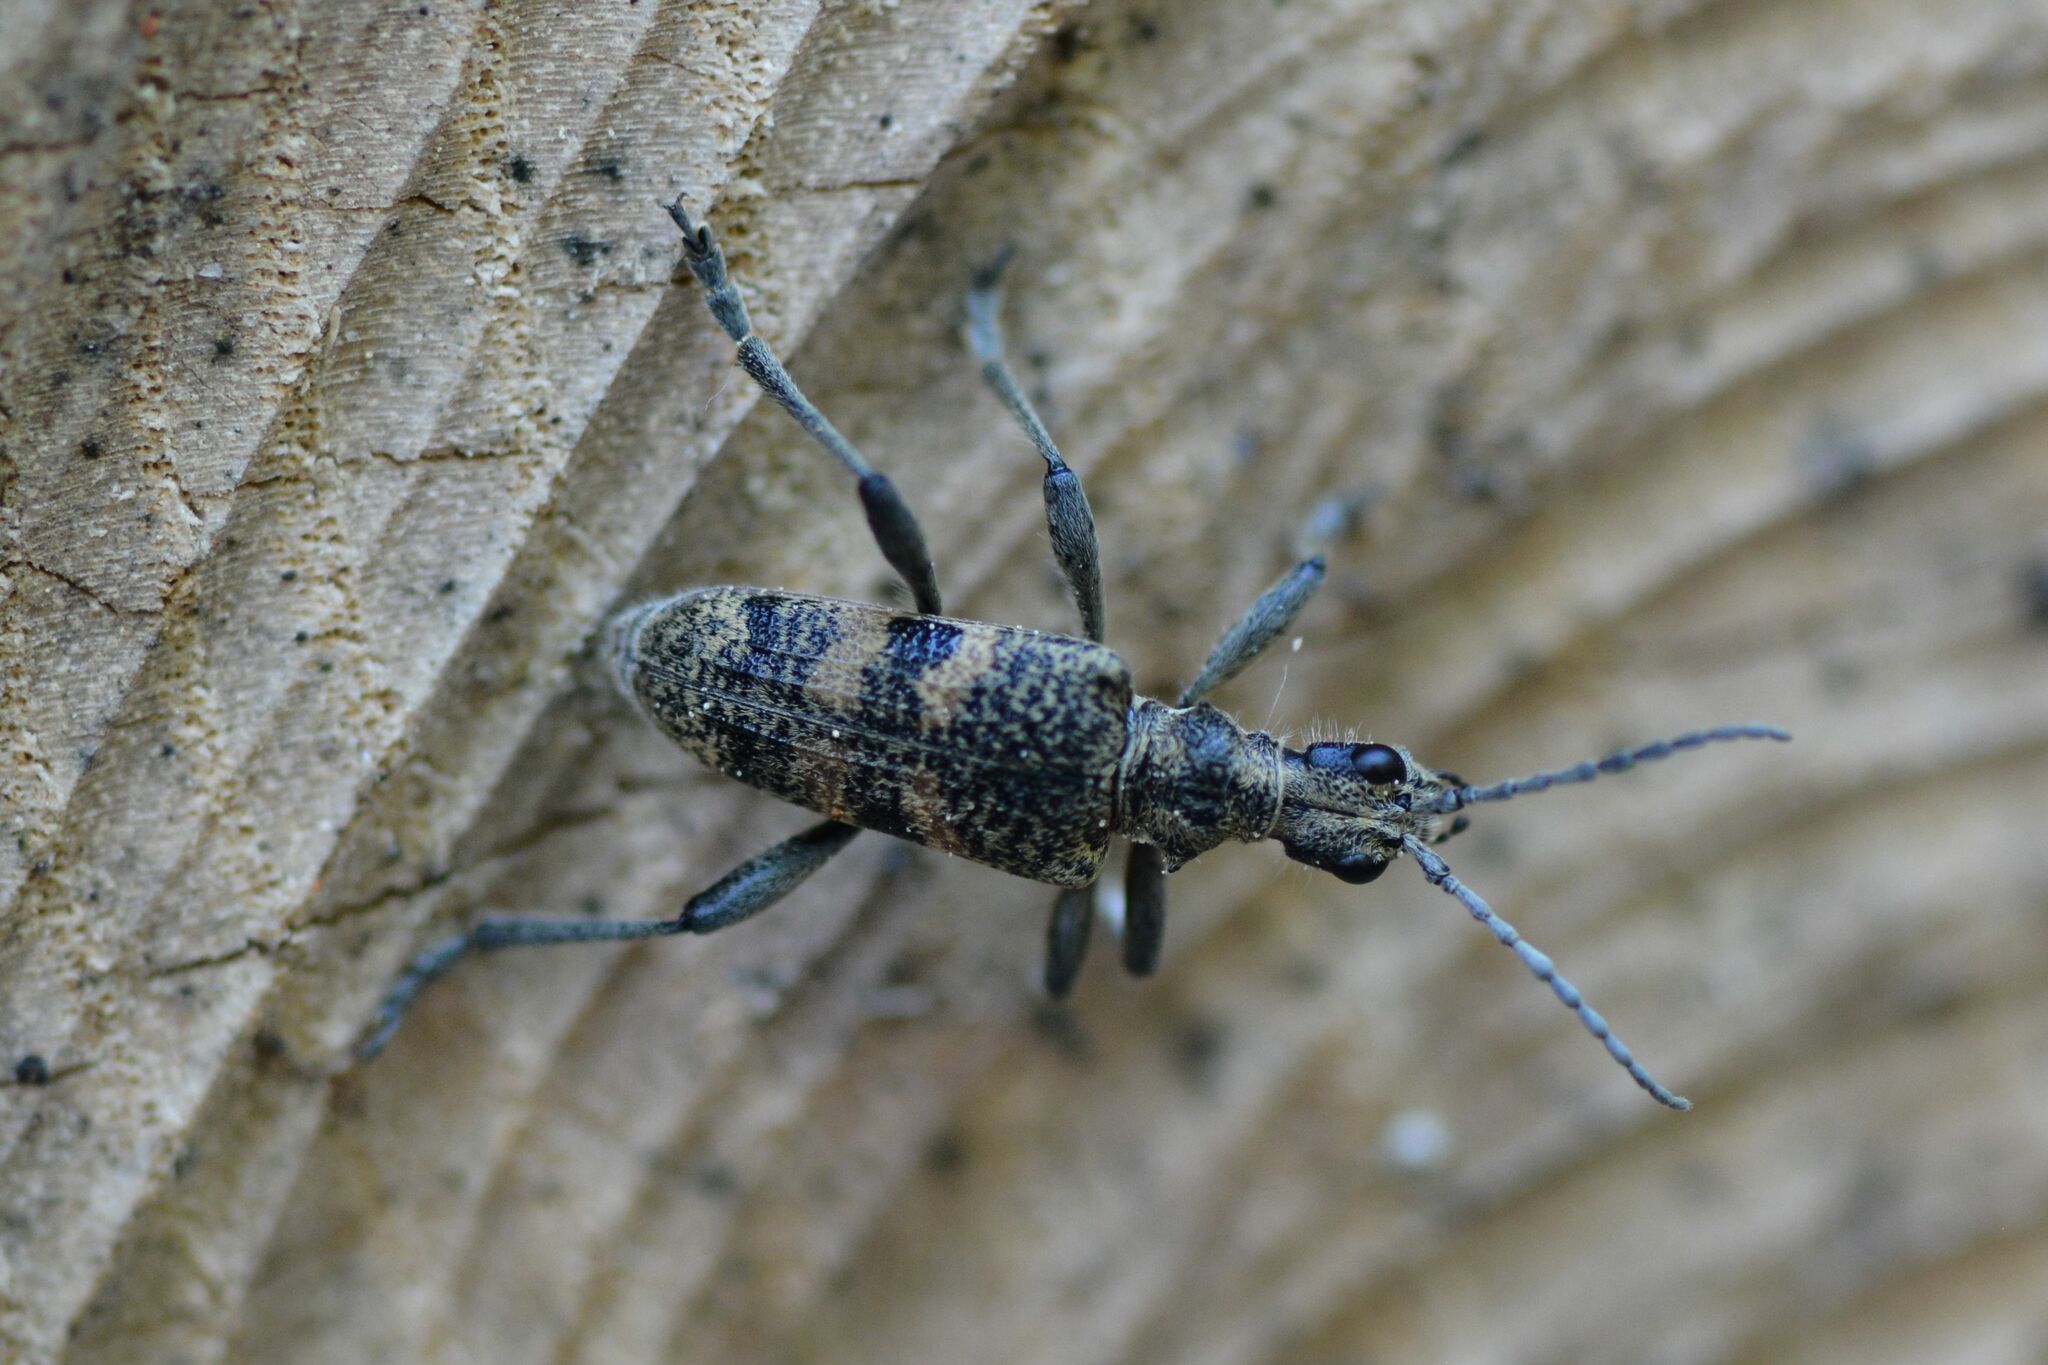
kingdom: Animalia
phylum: Arthropoda
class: Insecta
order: Coleoptera
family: Cerambycidae
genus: Rhagium
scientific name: Rhagium mordax
